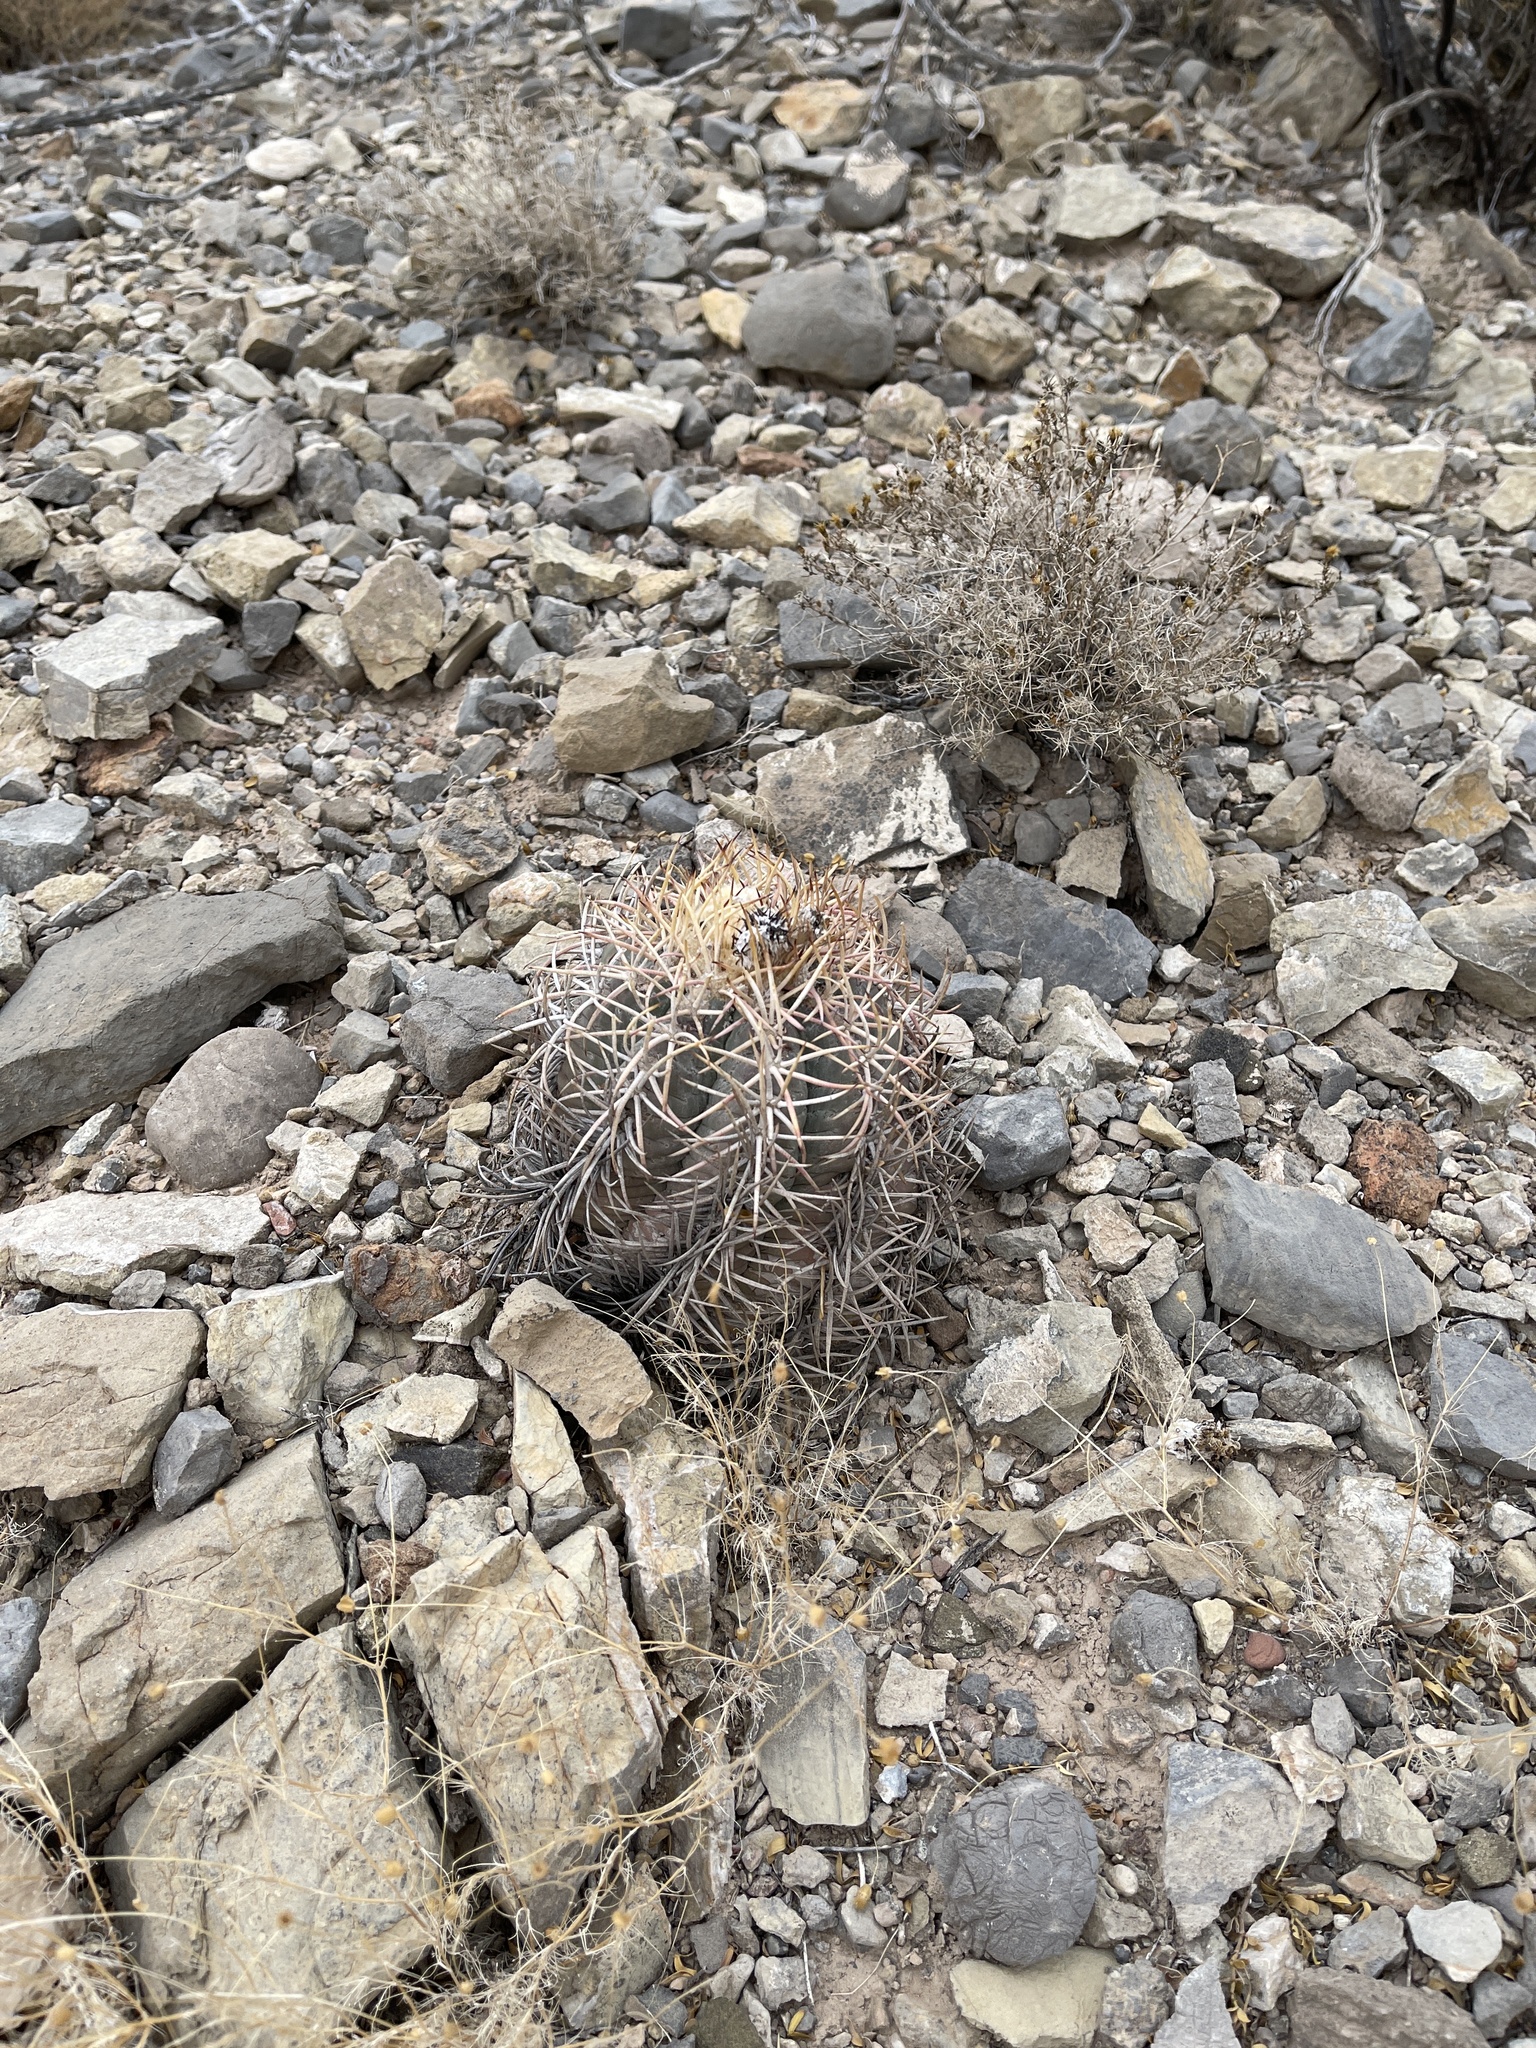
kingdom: Plantae
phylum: Tracheophyta
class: Magnoliopsida
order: Caryophyllales
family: Cactaceae
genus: Echinocactus
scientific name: Echinocactus horizonthalonius
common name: Devilshead
